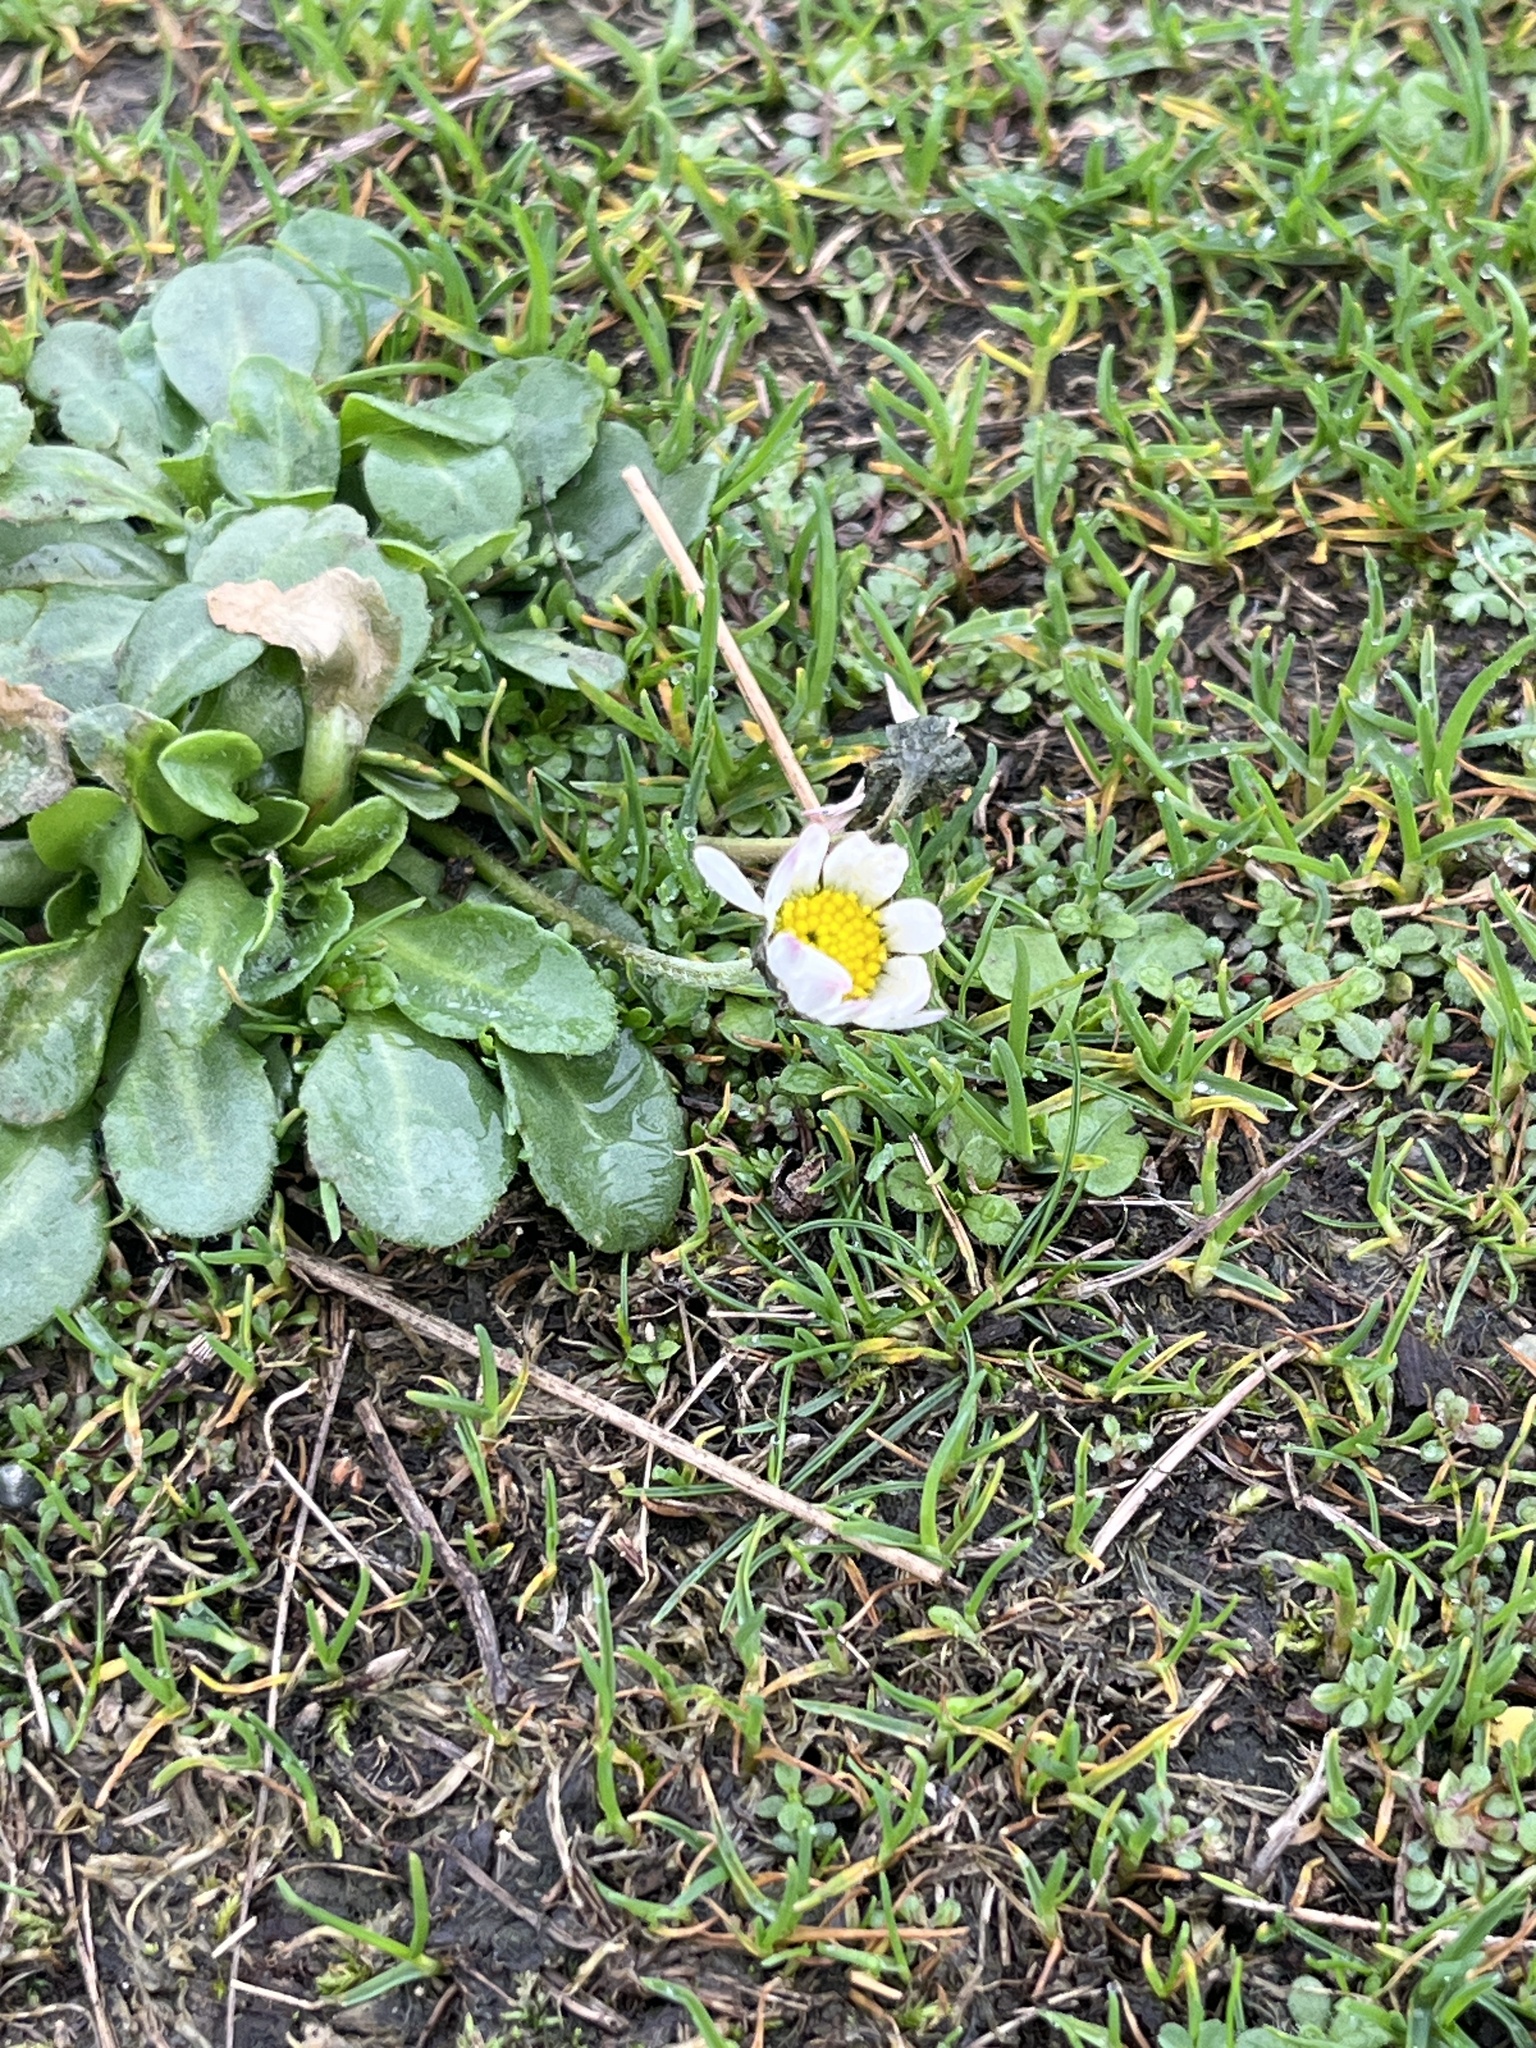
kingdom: Plantae
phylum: Tracheophyta
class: Magnoliopsida
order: Asterales
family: Asteraceae
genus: Bellis
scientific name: Bellis perennis
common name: Lawndaisy
